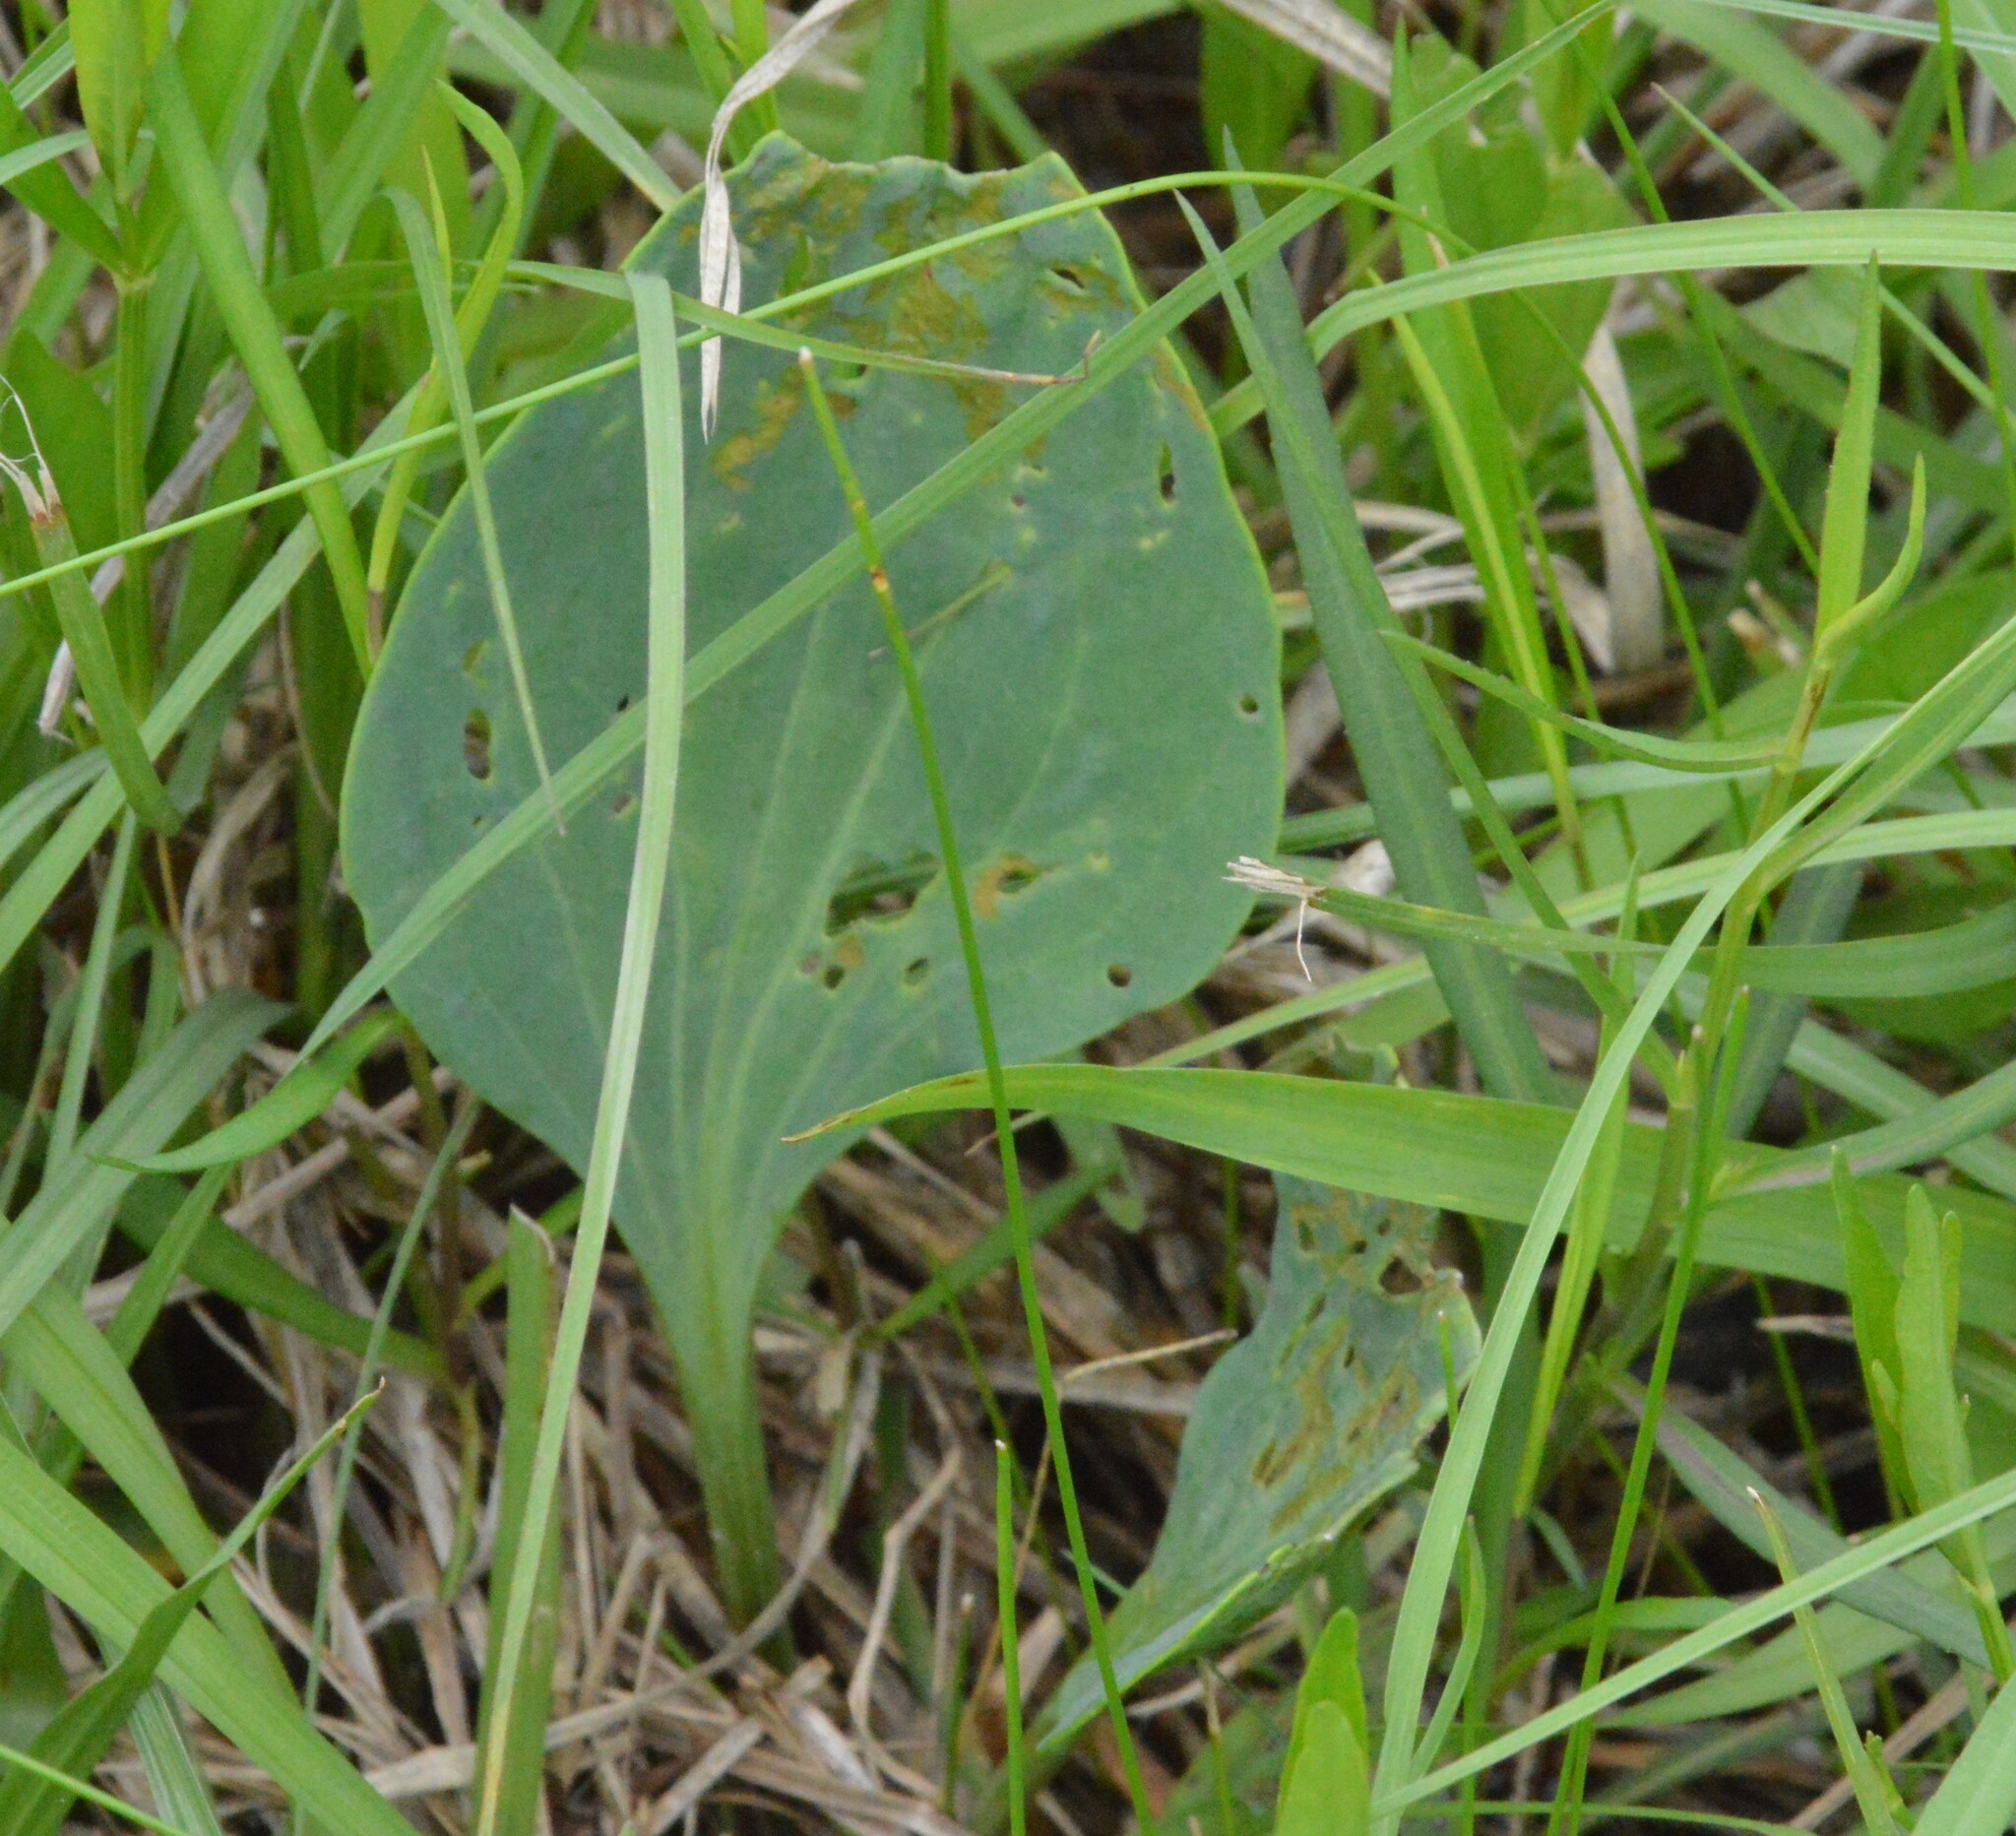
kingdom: Plantae
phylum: Tracheophyta
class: Magnoliopsida
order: Asterales
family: Asteraceae
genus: Arnoglossum
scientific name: Arnoglossum ovatum
